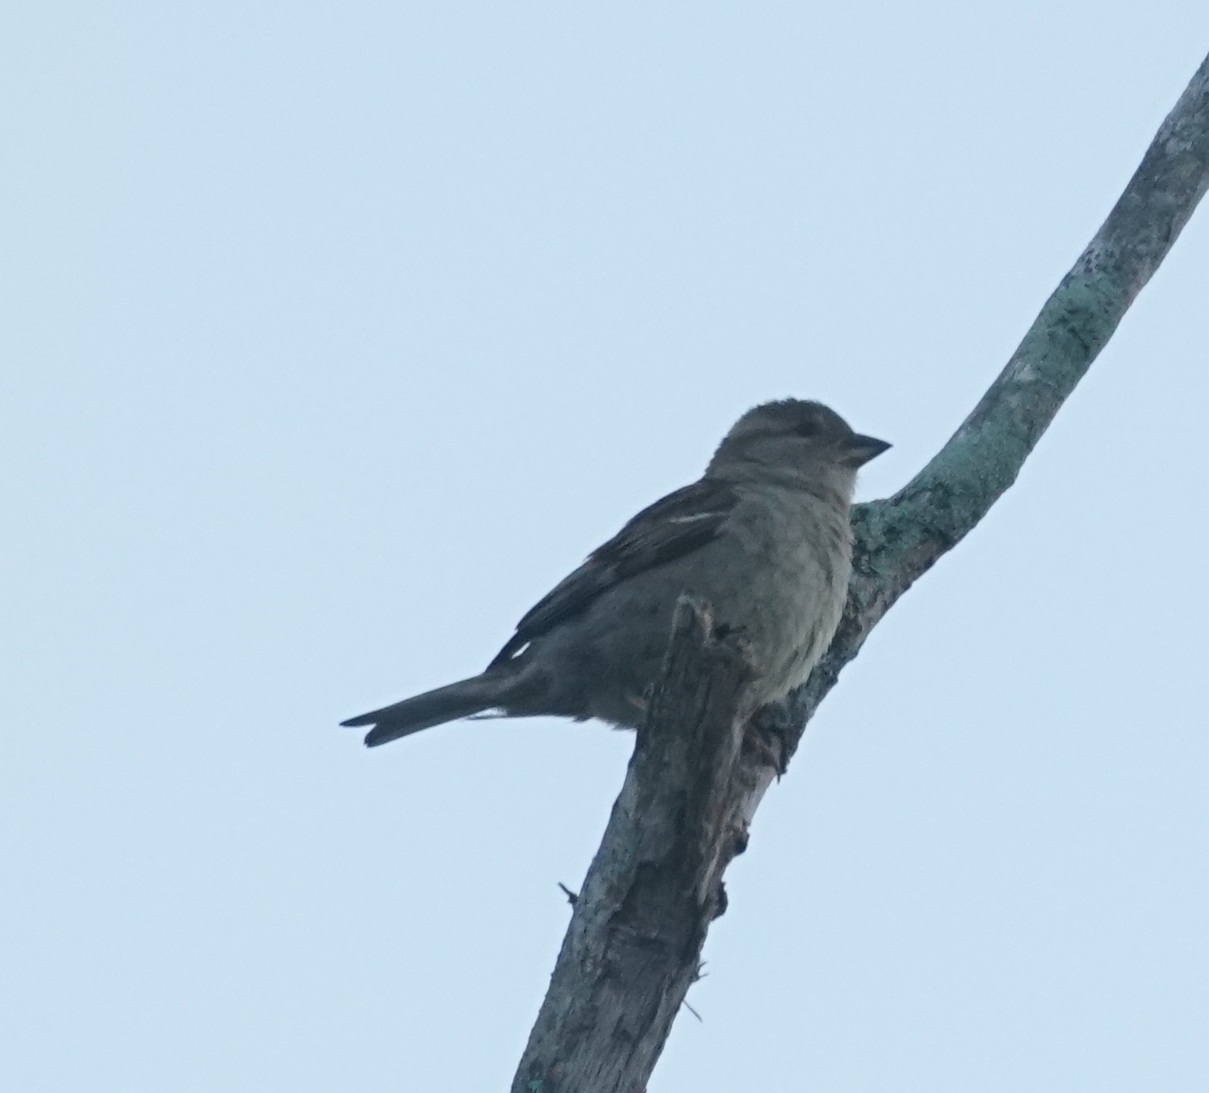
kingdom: Animalia
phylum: Chordata
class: Aves
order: Passeriformes
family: Passeridae
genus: Passer
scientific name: Passer domesticus
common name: House sparrow
